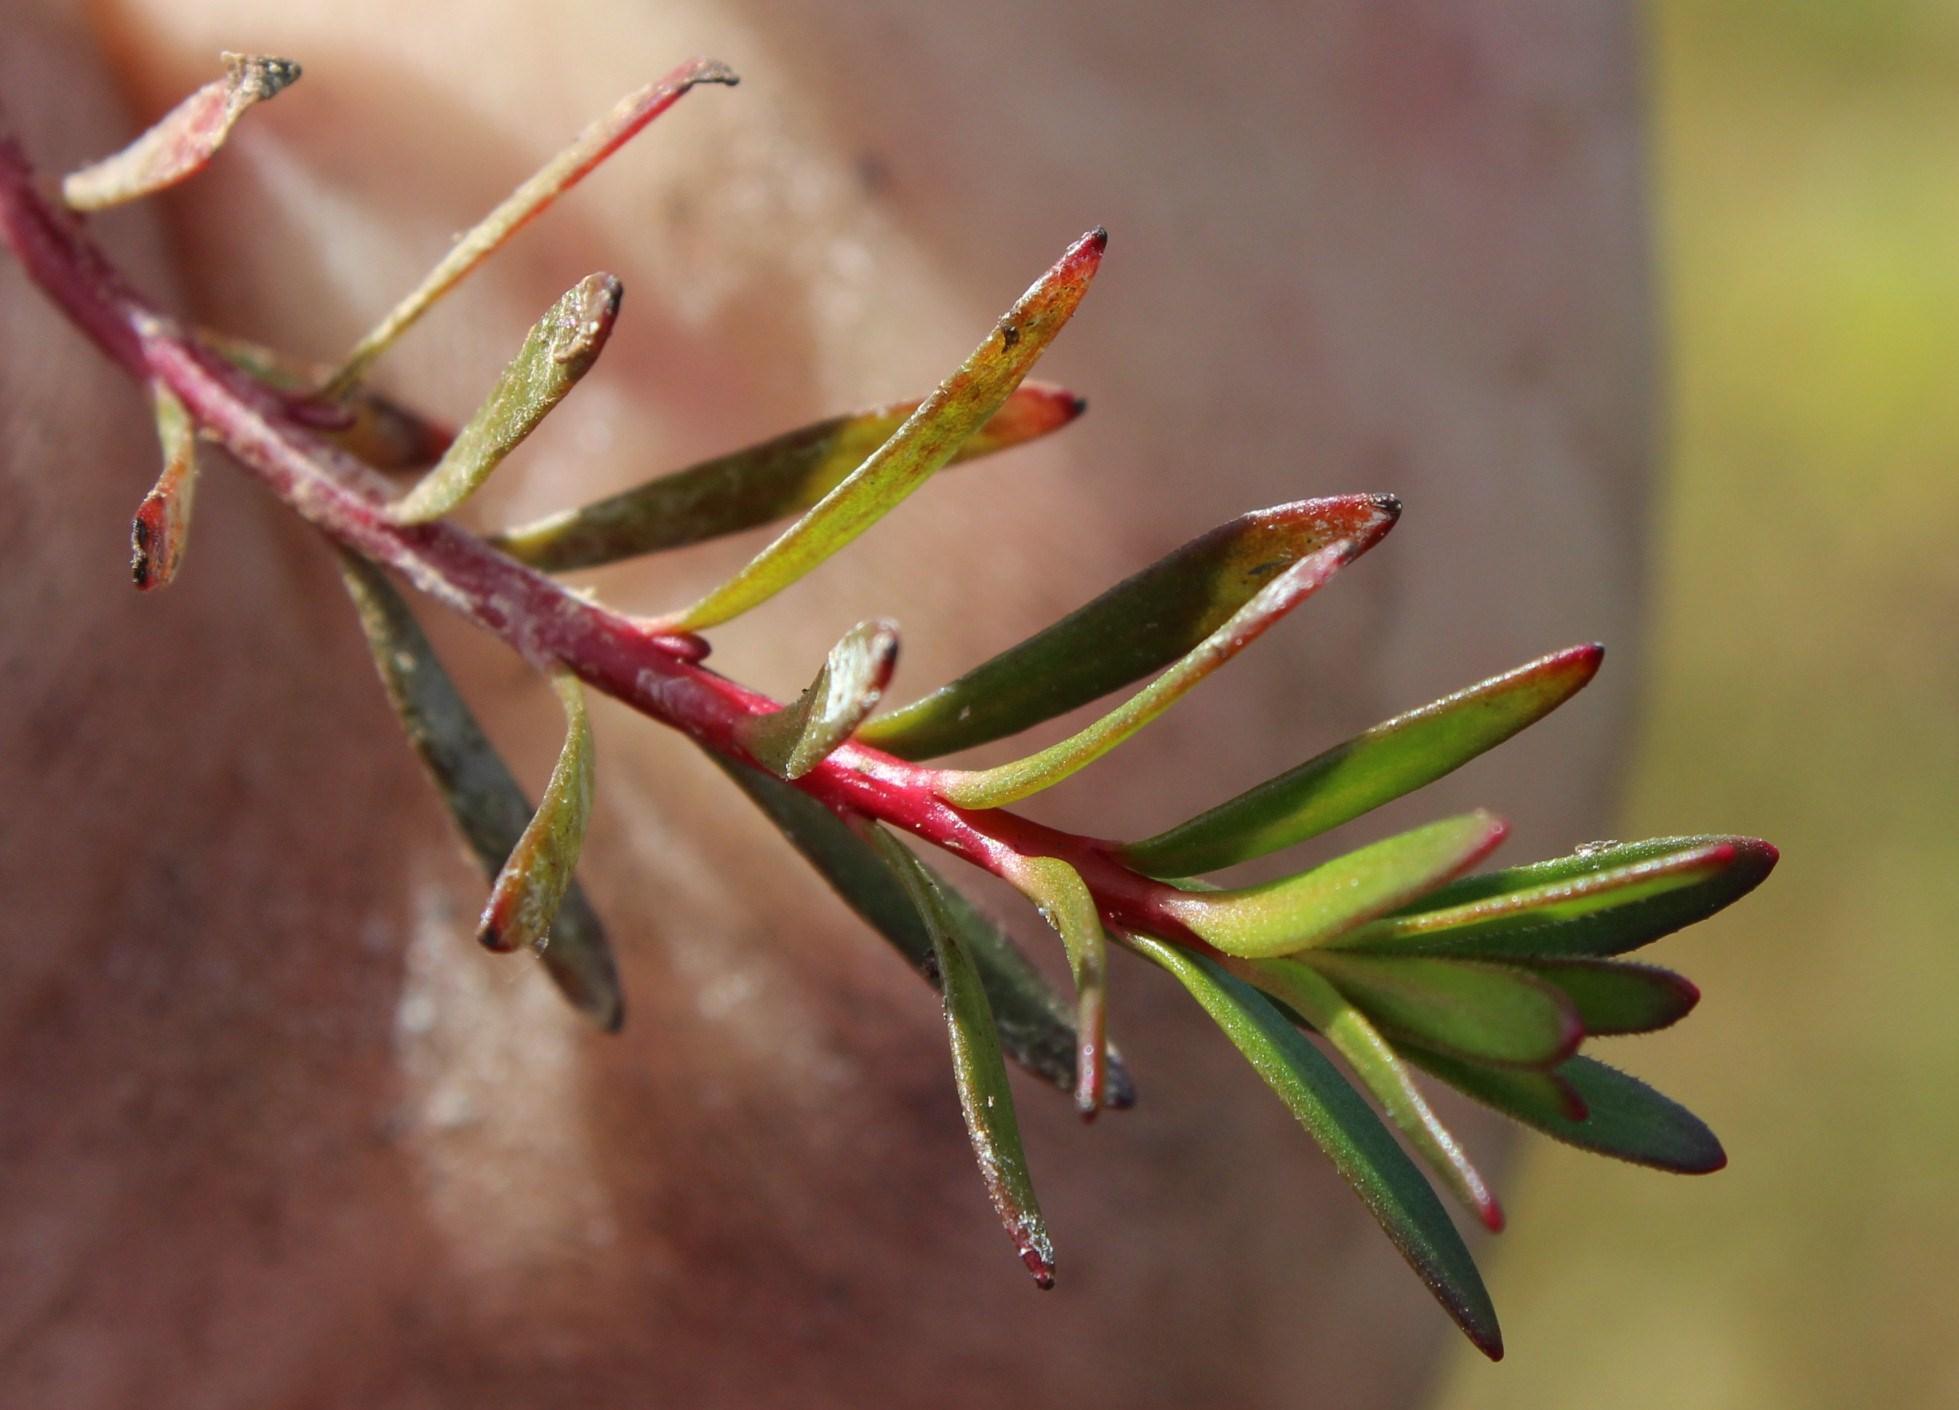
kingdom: Plantae
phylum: Tracheophyta
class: Magnoliopsida
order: Saxifragales
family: Haloragaceae
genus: Laurembergia
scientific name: Laurembergia repens
